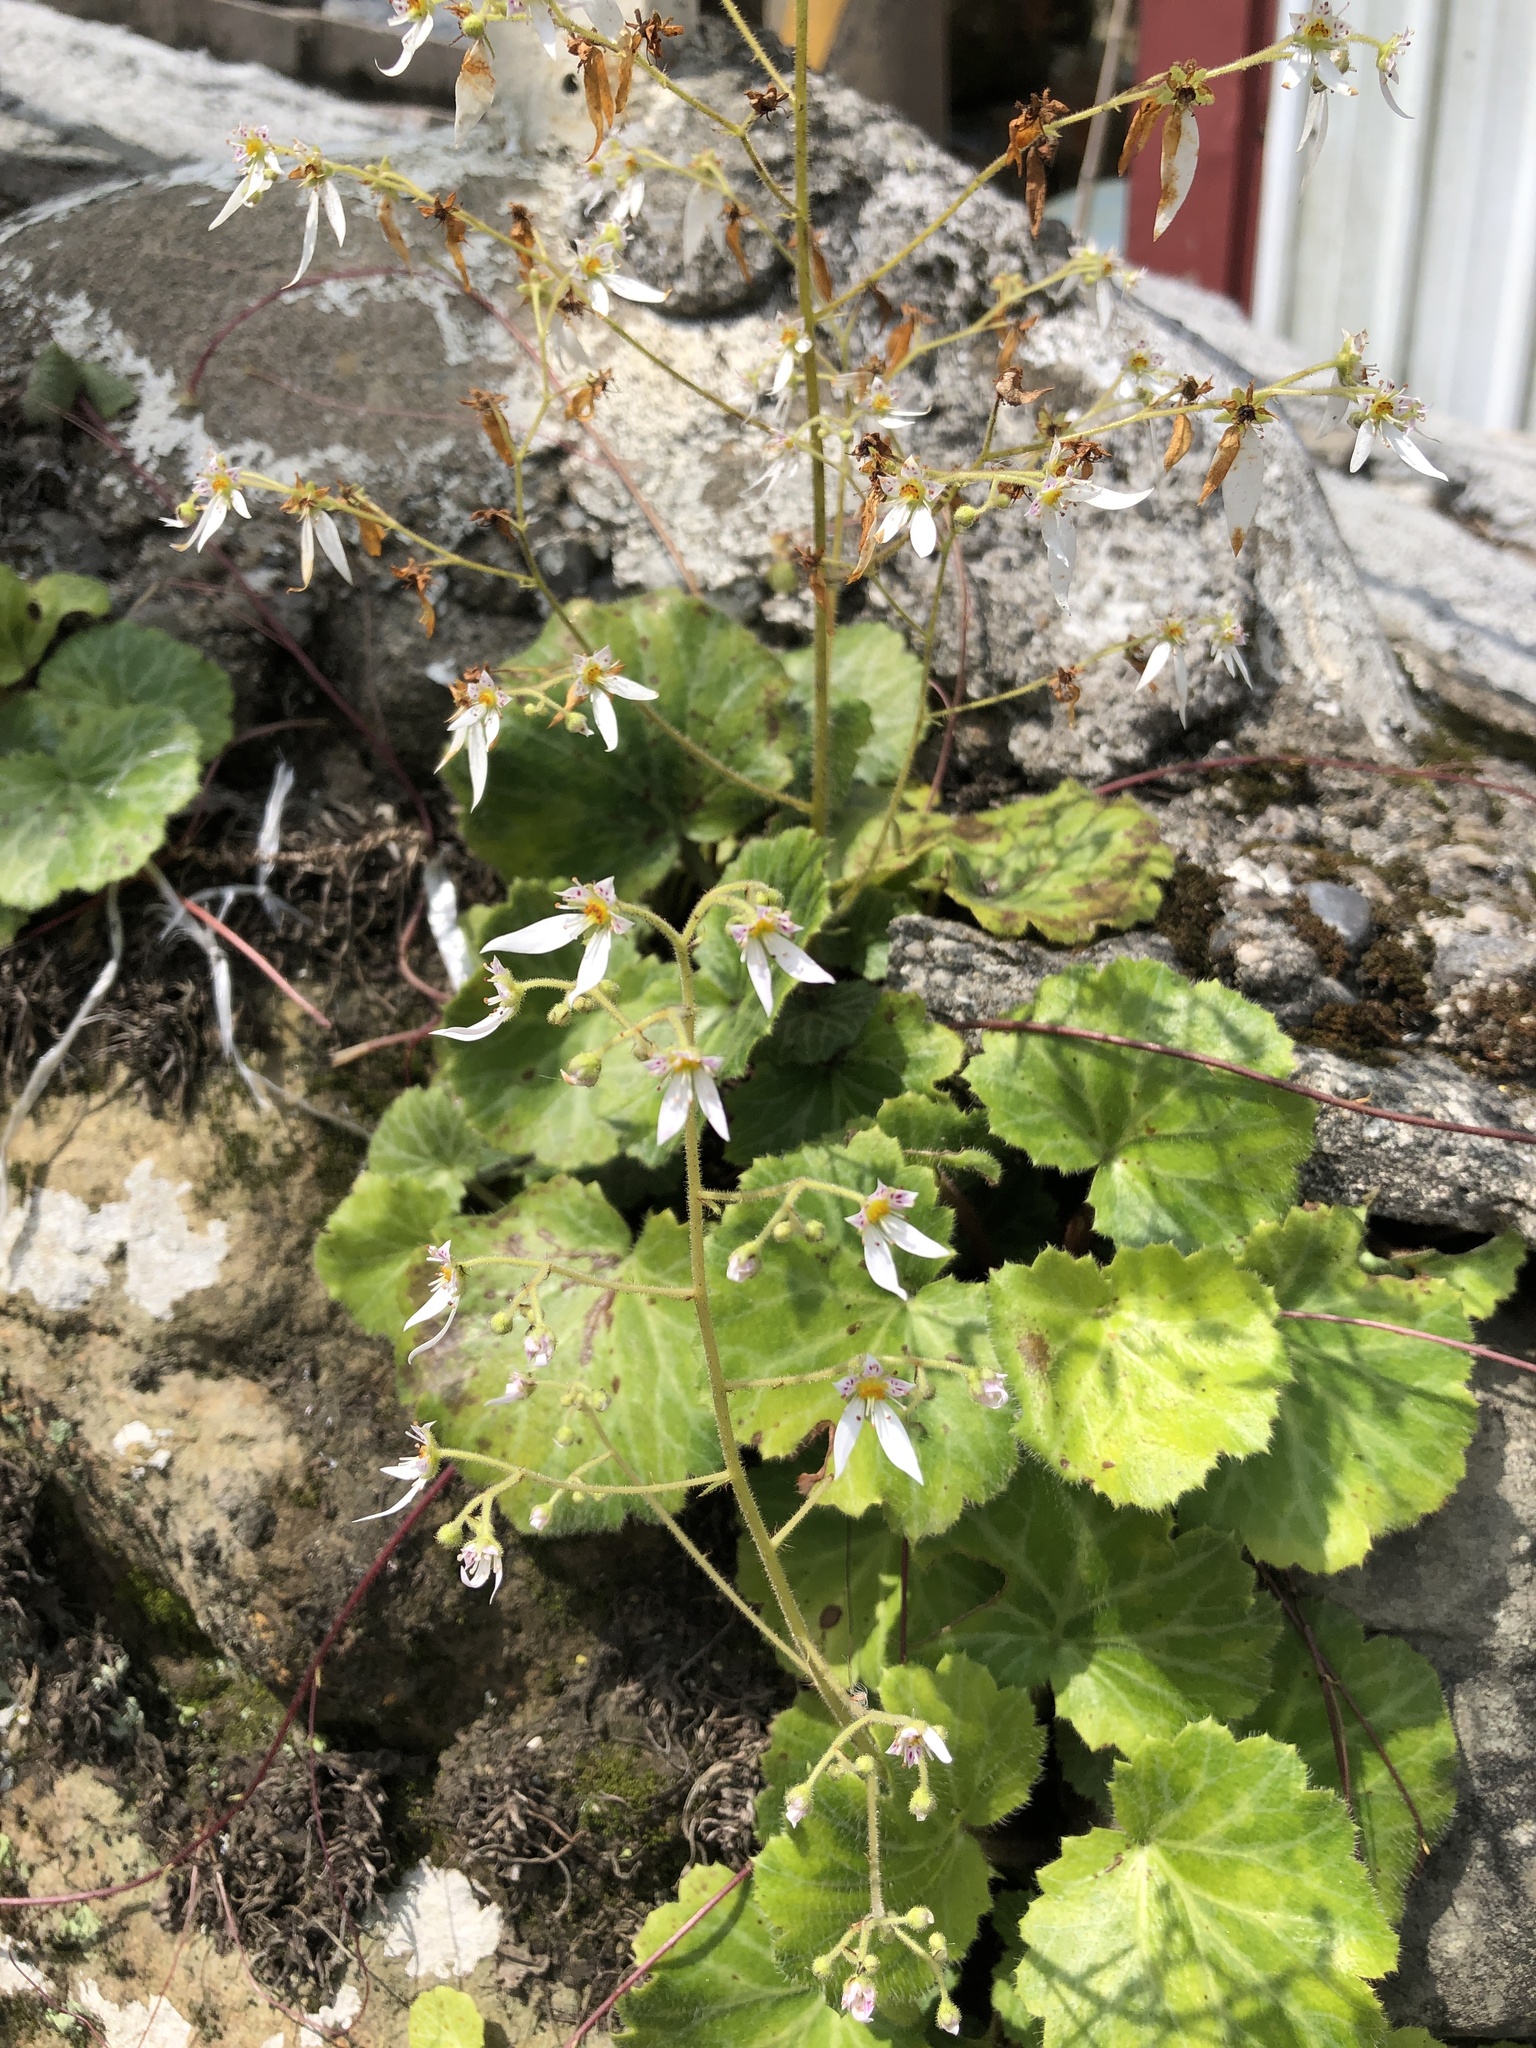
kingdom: Plantae
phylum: Tracheophyta
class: Magnoliopsida
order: Saxifragales
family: Saxifragaceae
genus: Saxifraga
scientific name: Saxifraga stolonifera
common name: Creeping saxifrage
